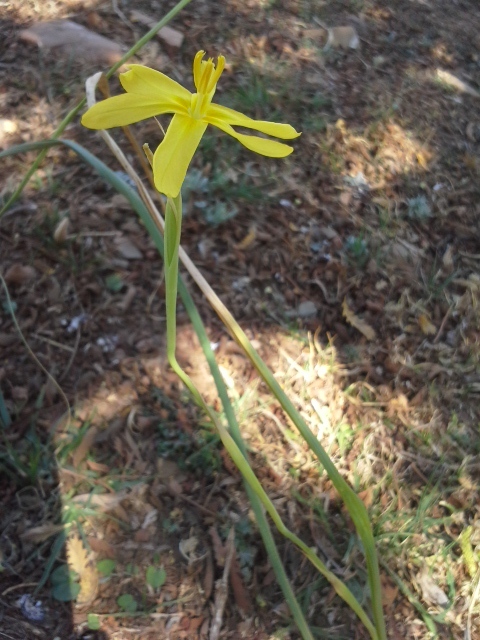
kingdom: Plantae
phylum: Tracheophyta
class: Liliopsida
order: Asparagales
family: Iridaceae
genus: Moraea
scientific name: Moraea pallida
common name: Yellow tulp
